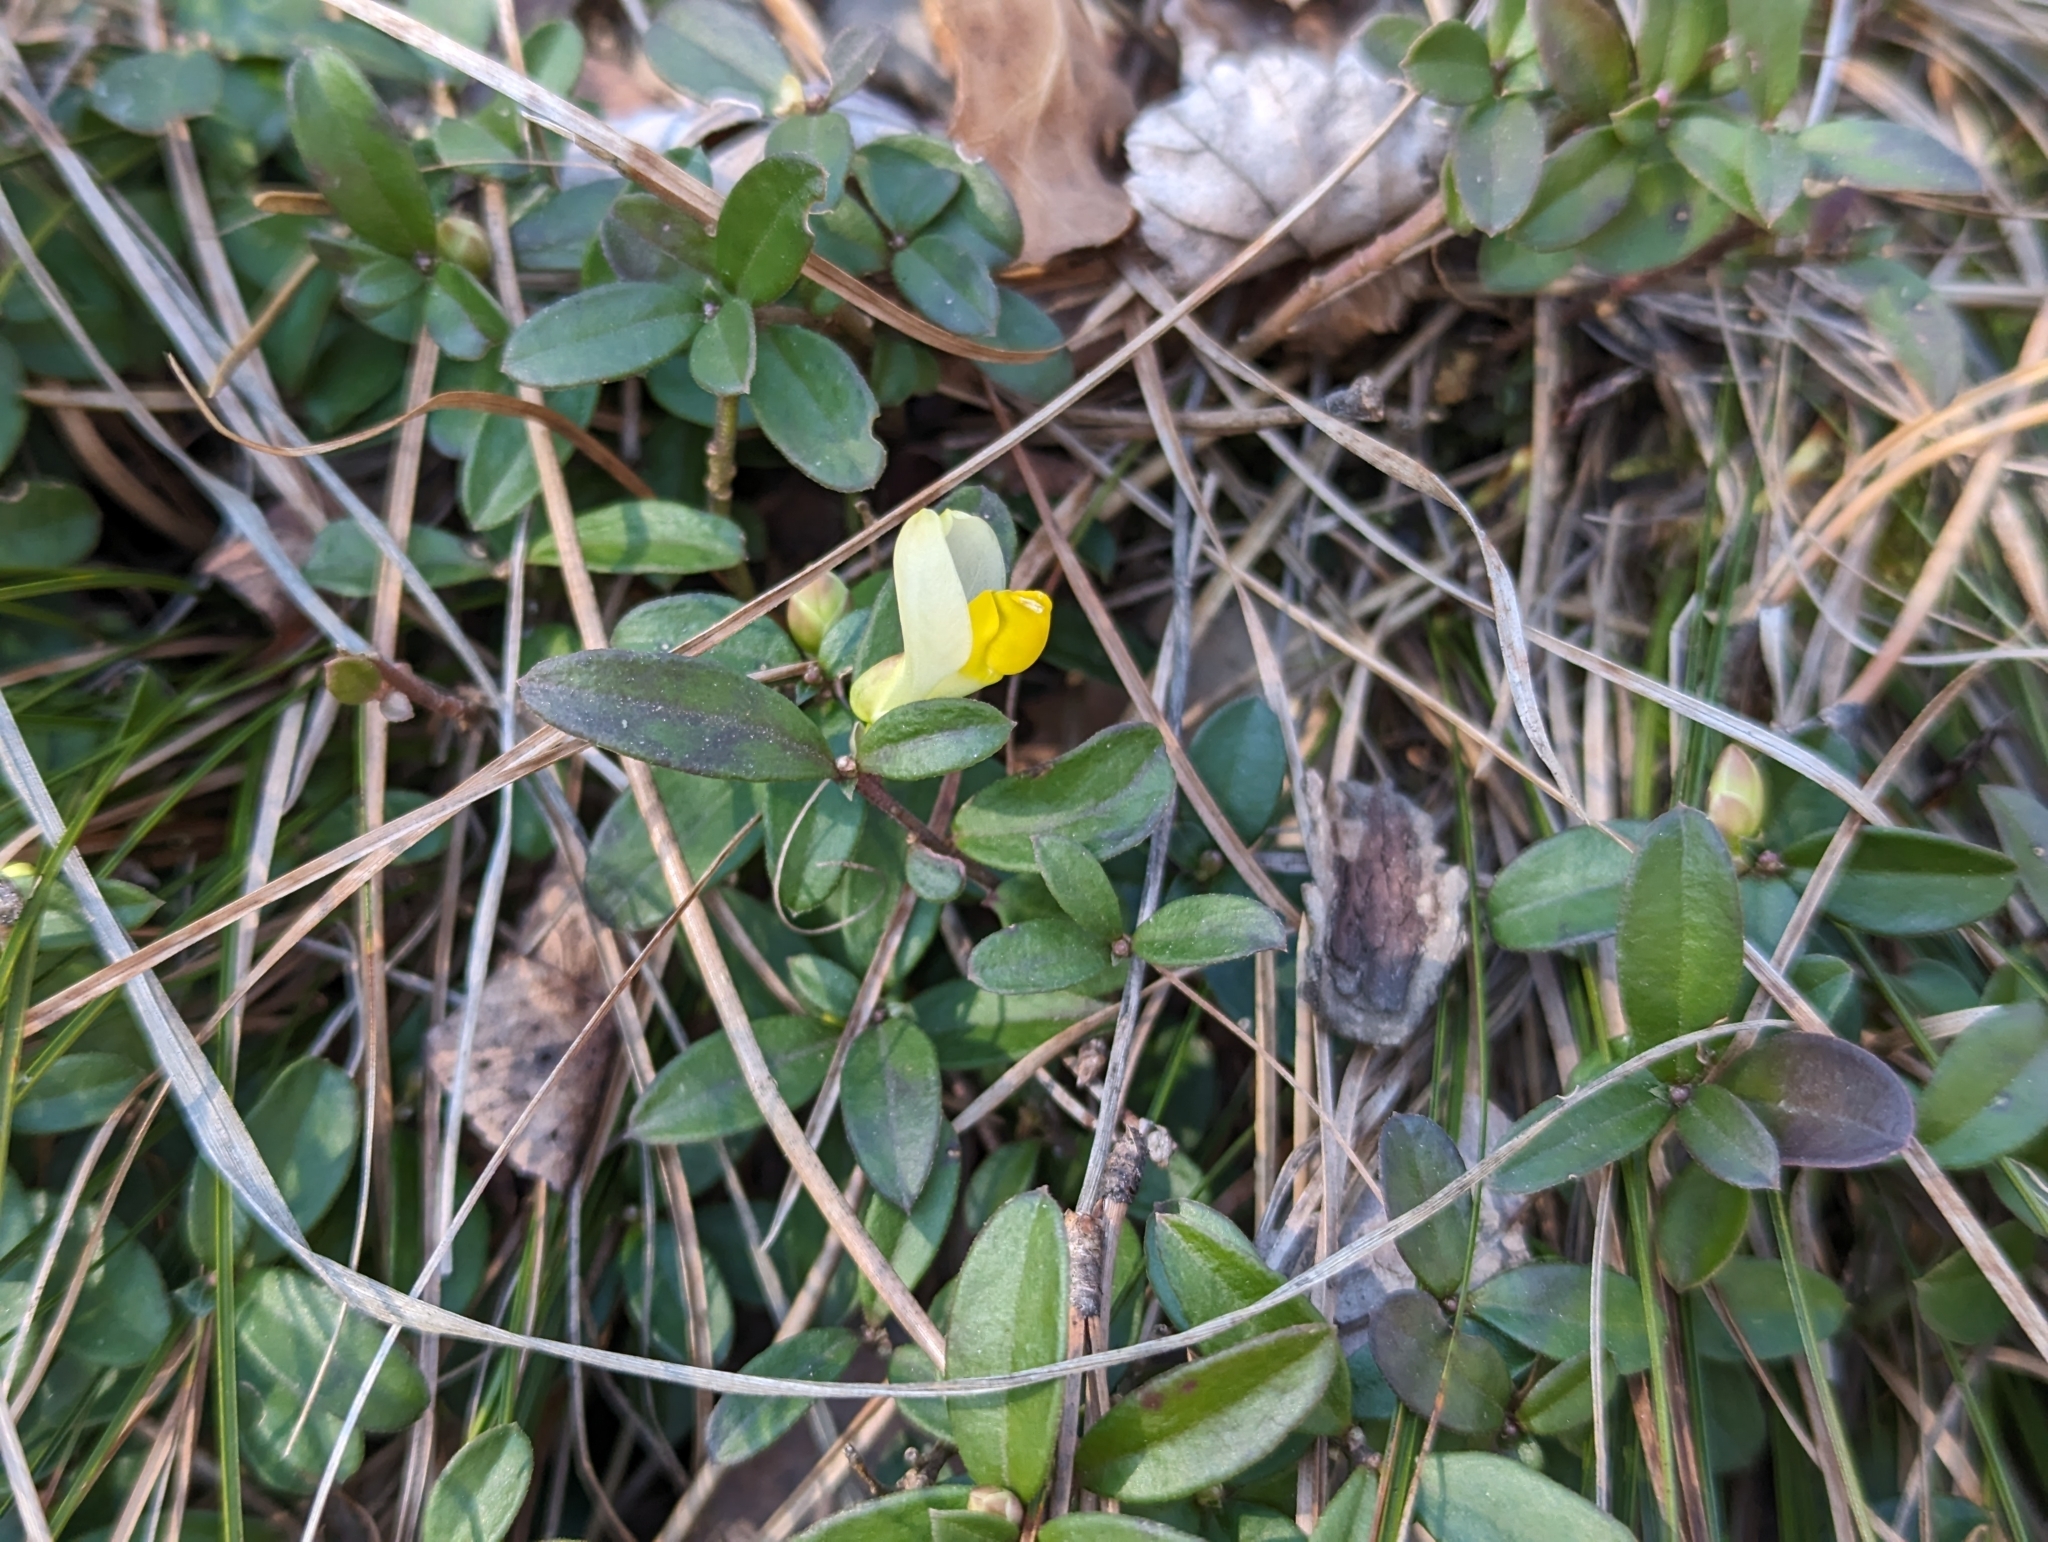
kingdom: Plantae
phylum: Tracheophyta
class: Magnoliopsida
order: Fabales
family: Polygalaceae
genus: Polygaloides
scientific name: Polygaloides chamaebuxus
